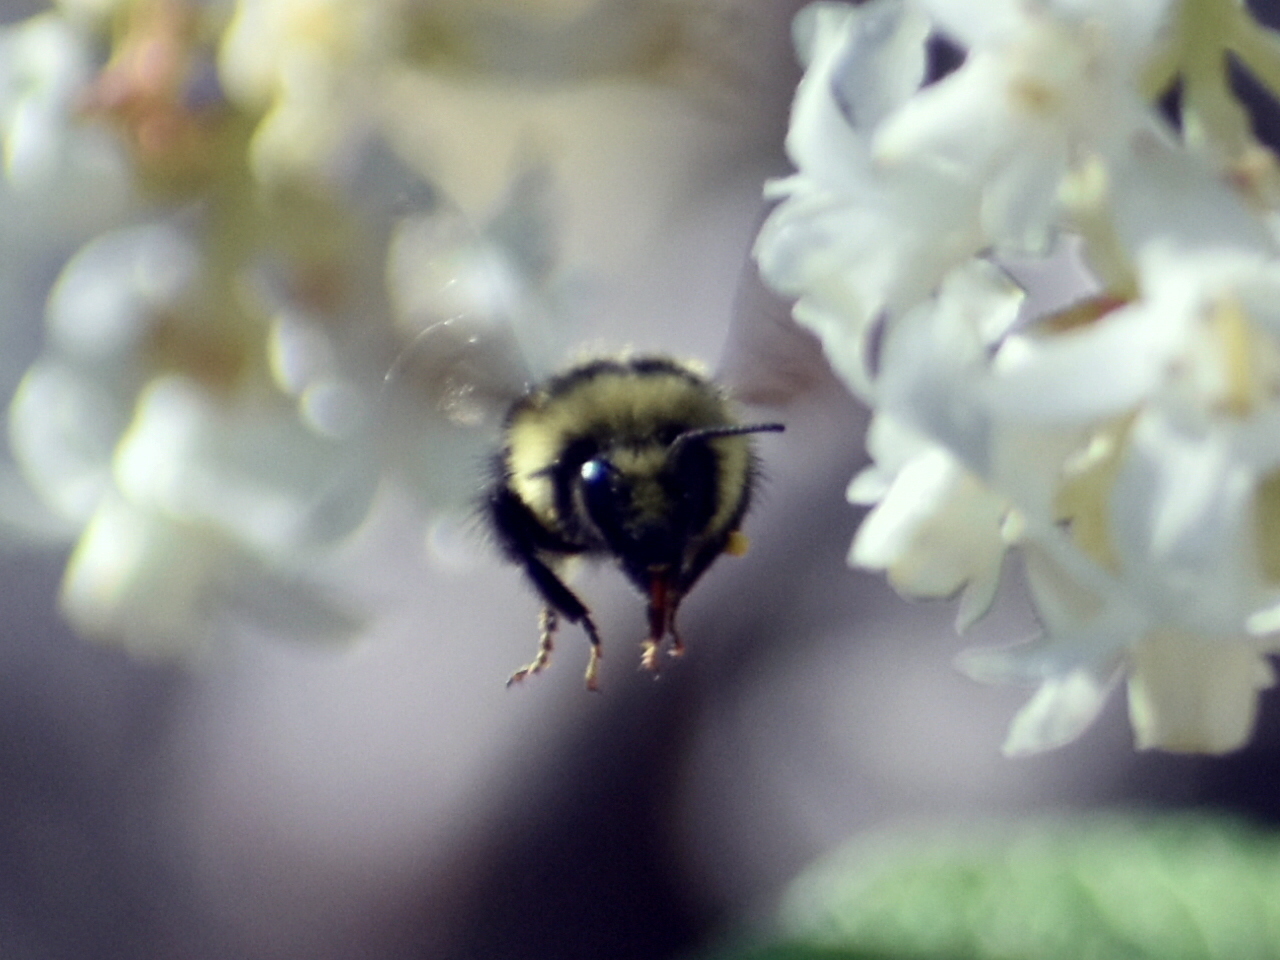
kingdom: Animalia
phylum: Arthropoda
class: Insecta
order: Hymenoptera
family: Apidae
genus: Bombus
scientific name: Bombus melanopygus
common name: Black tail bumble bee
